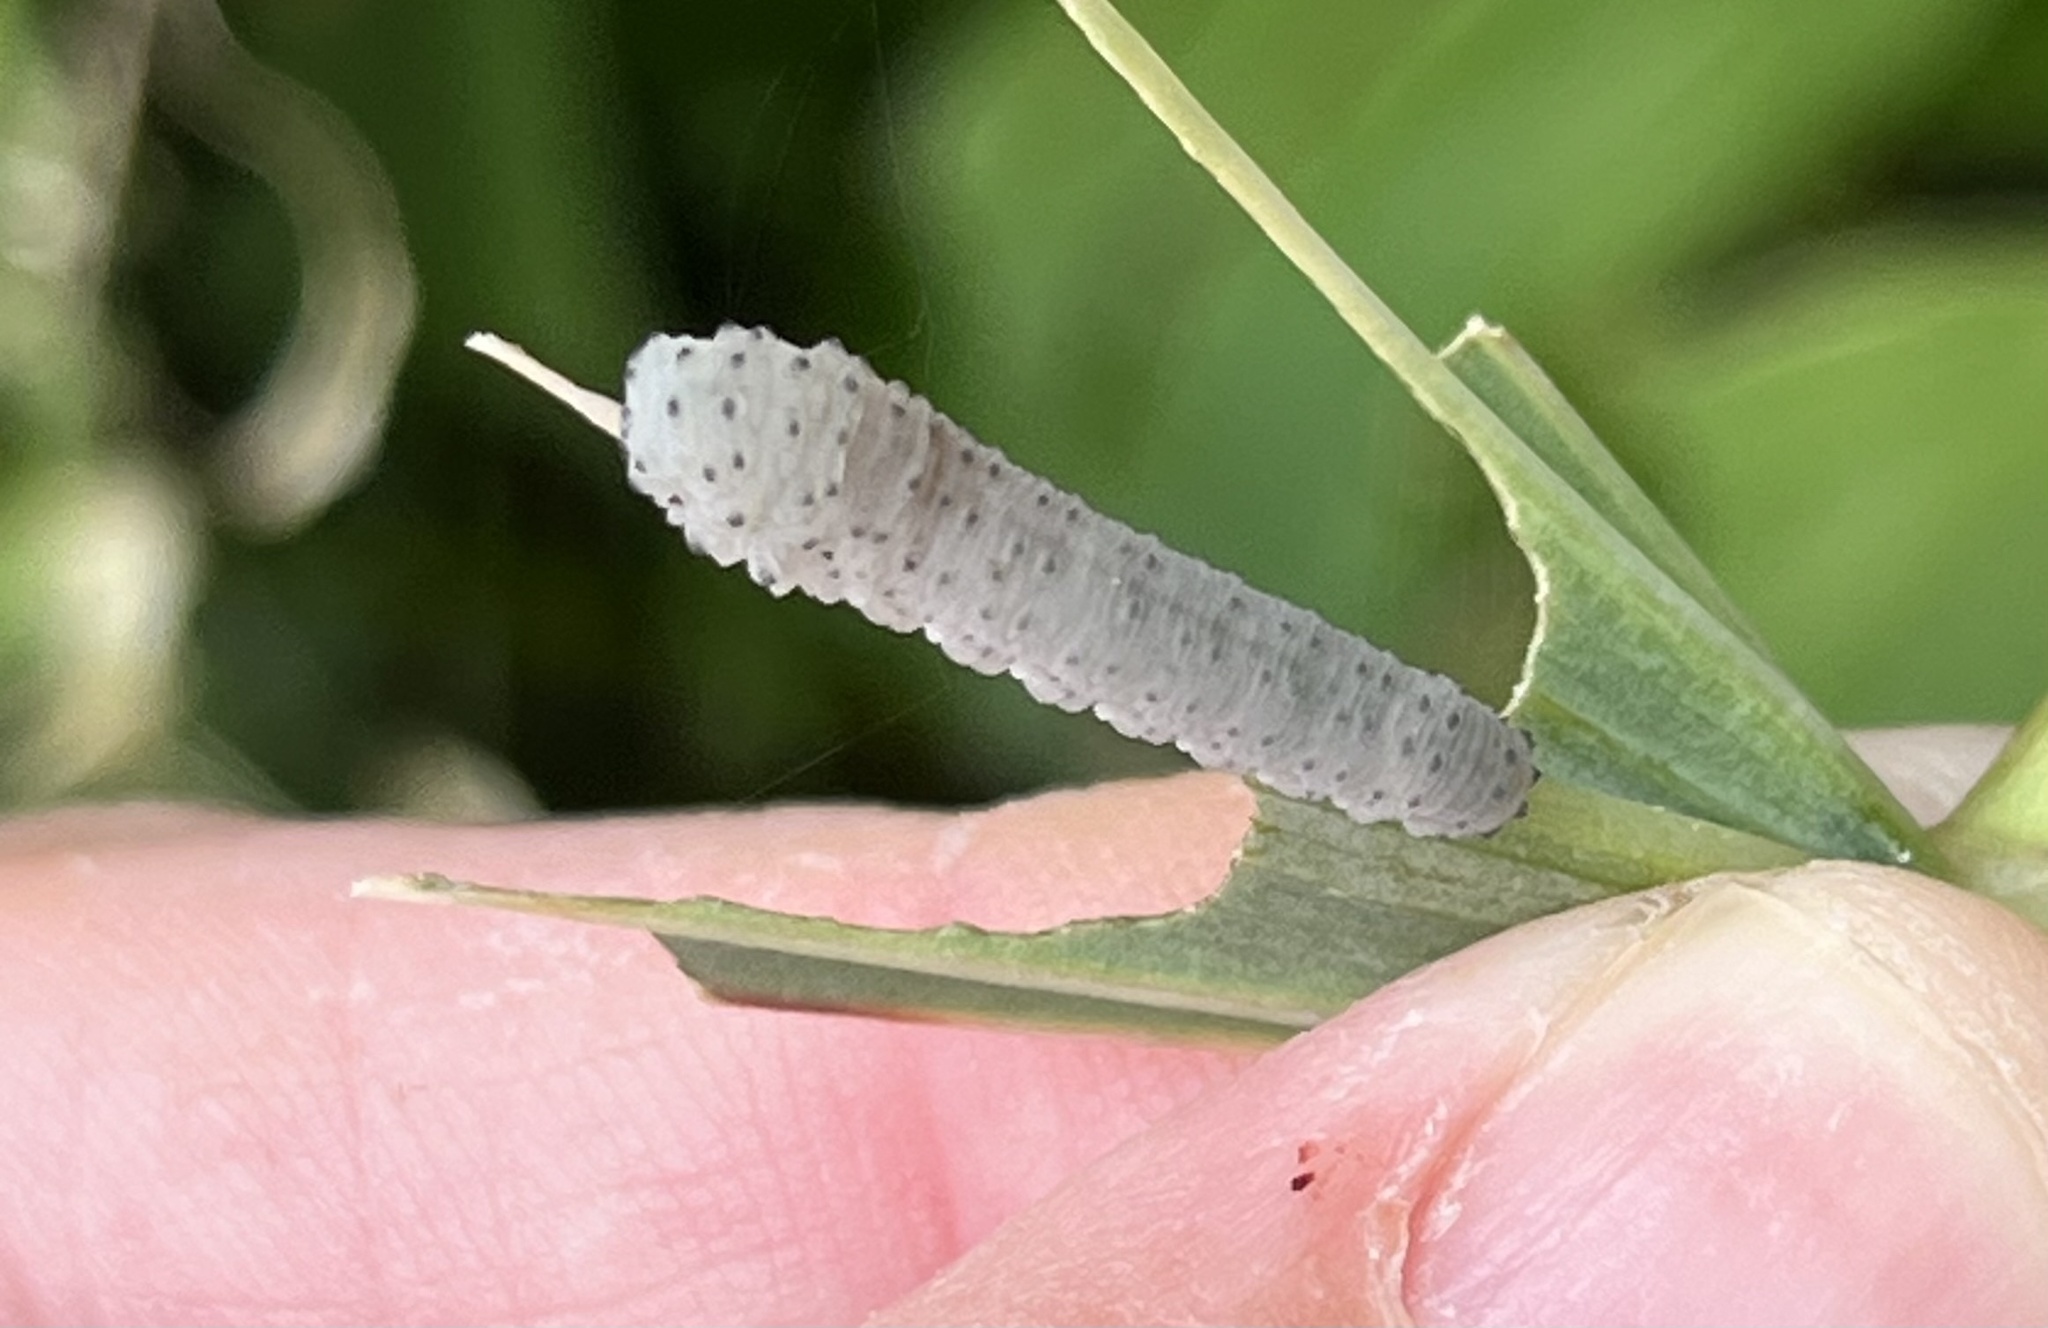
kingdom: Animalia
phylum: Arthropoda
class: Insecta
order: Hymenoptera
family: Tenthredinidae
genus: Phymatocera
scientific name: Phymatocera aterrima
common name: Solomon's-seal sawfly
